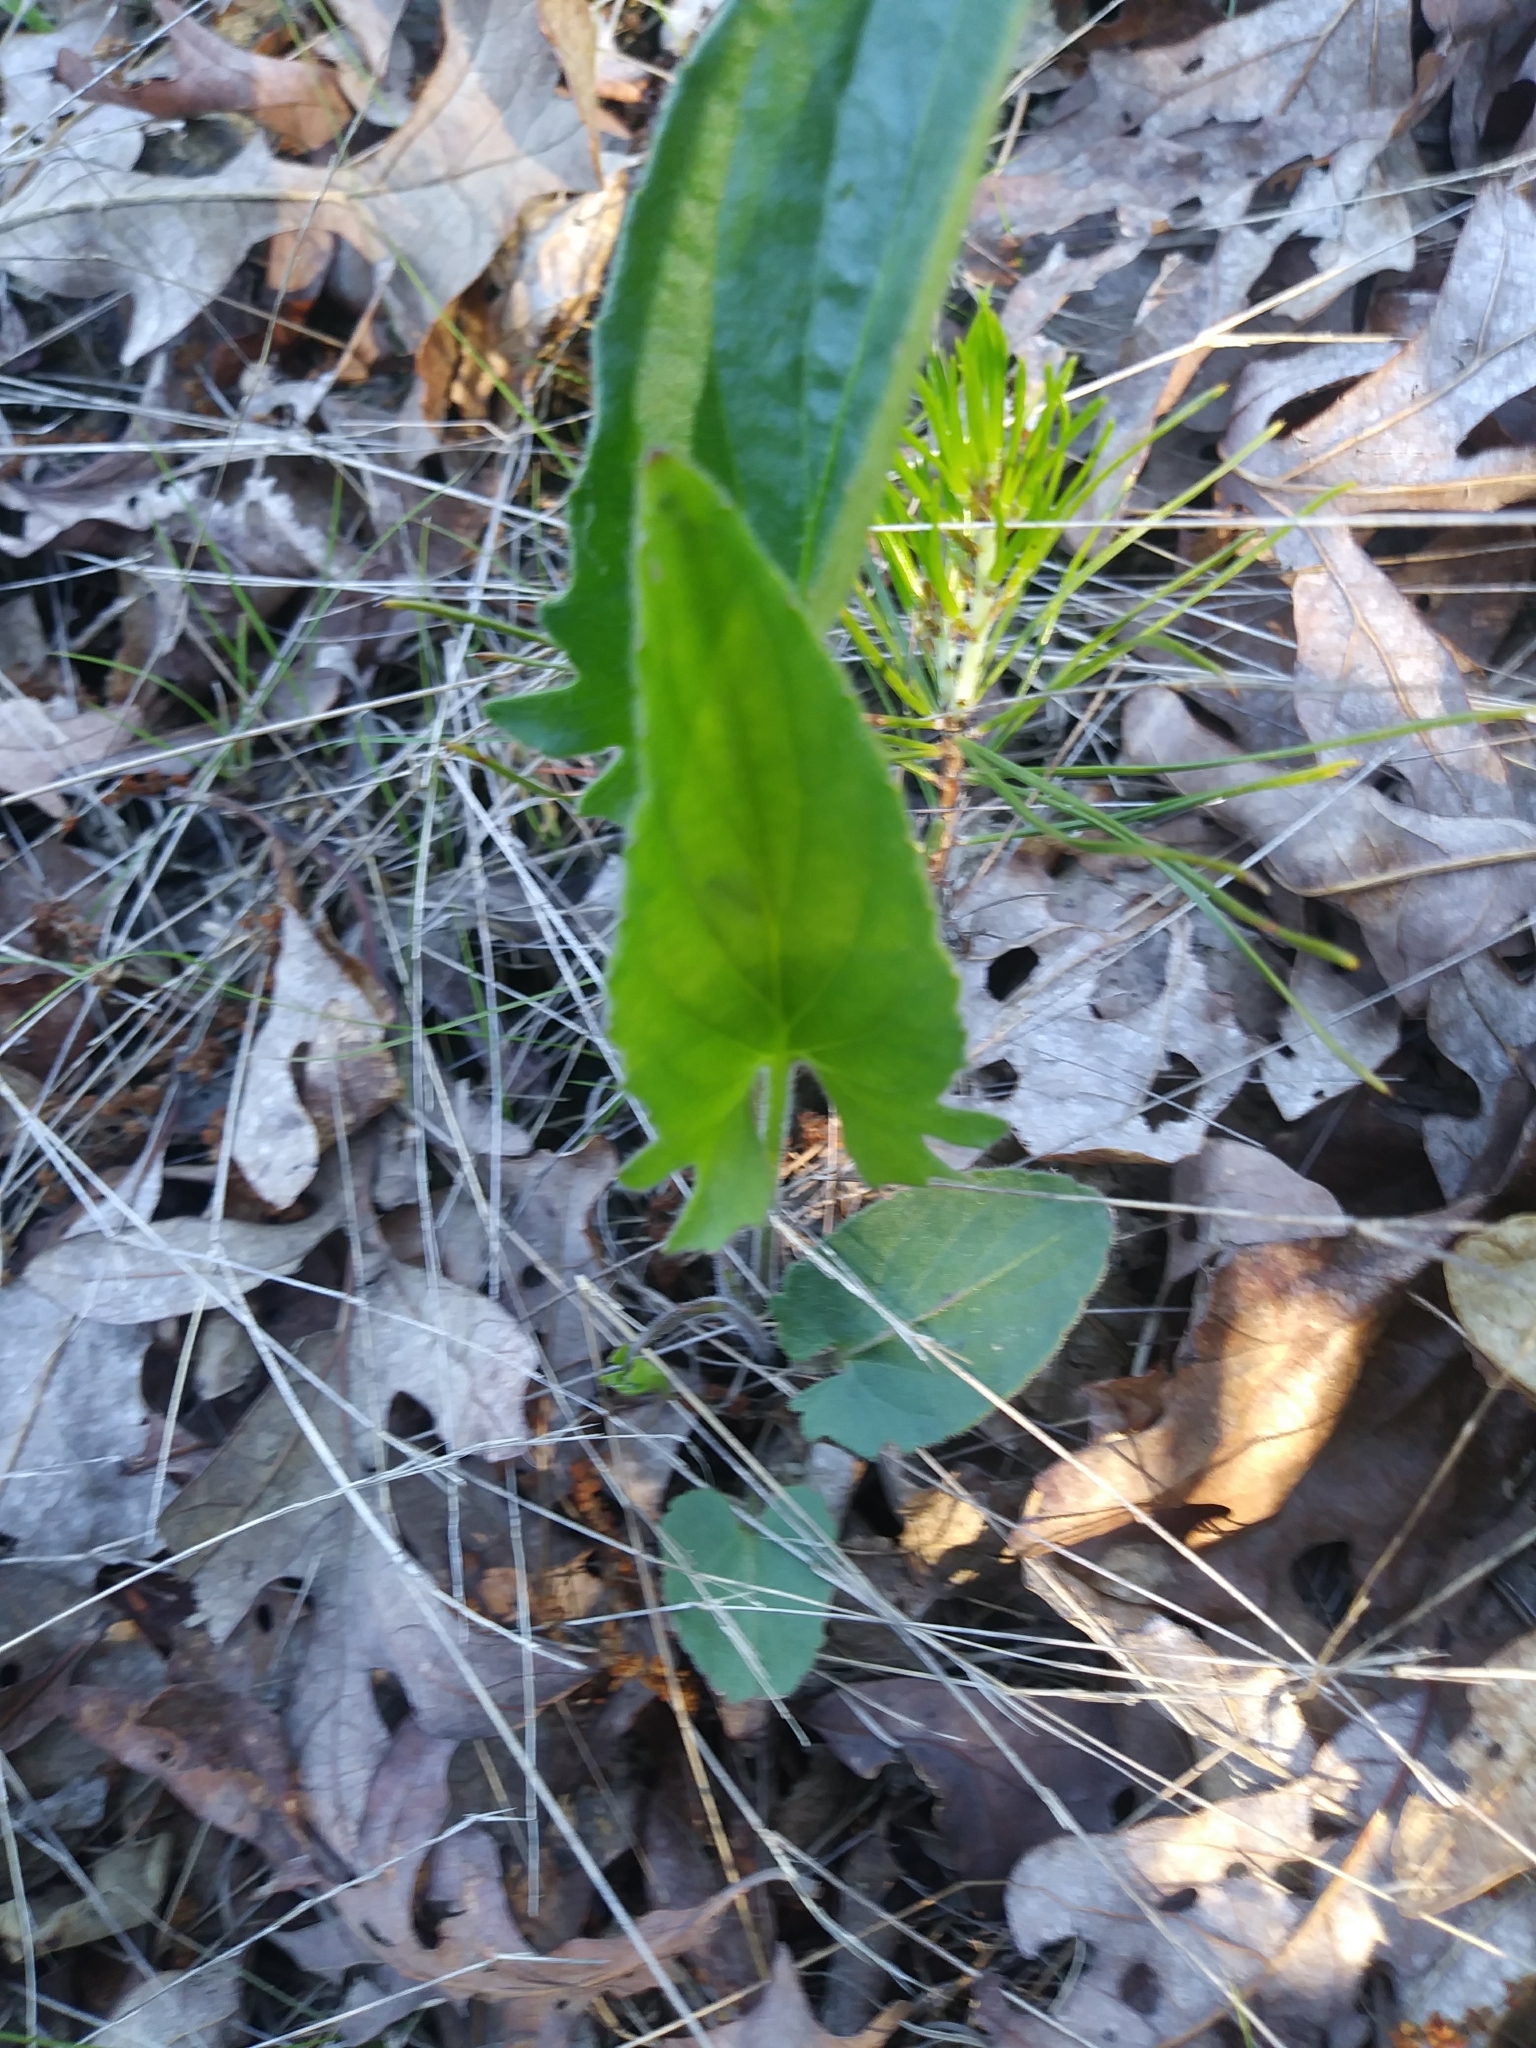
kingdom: Plantae
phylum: Tracheophyta
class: Magnoliopsida
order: Malpighiales
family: Violaceae
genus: Viola
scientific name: Viola sagittata
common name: Arrowhead violet
